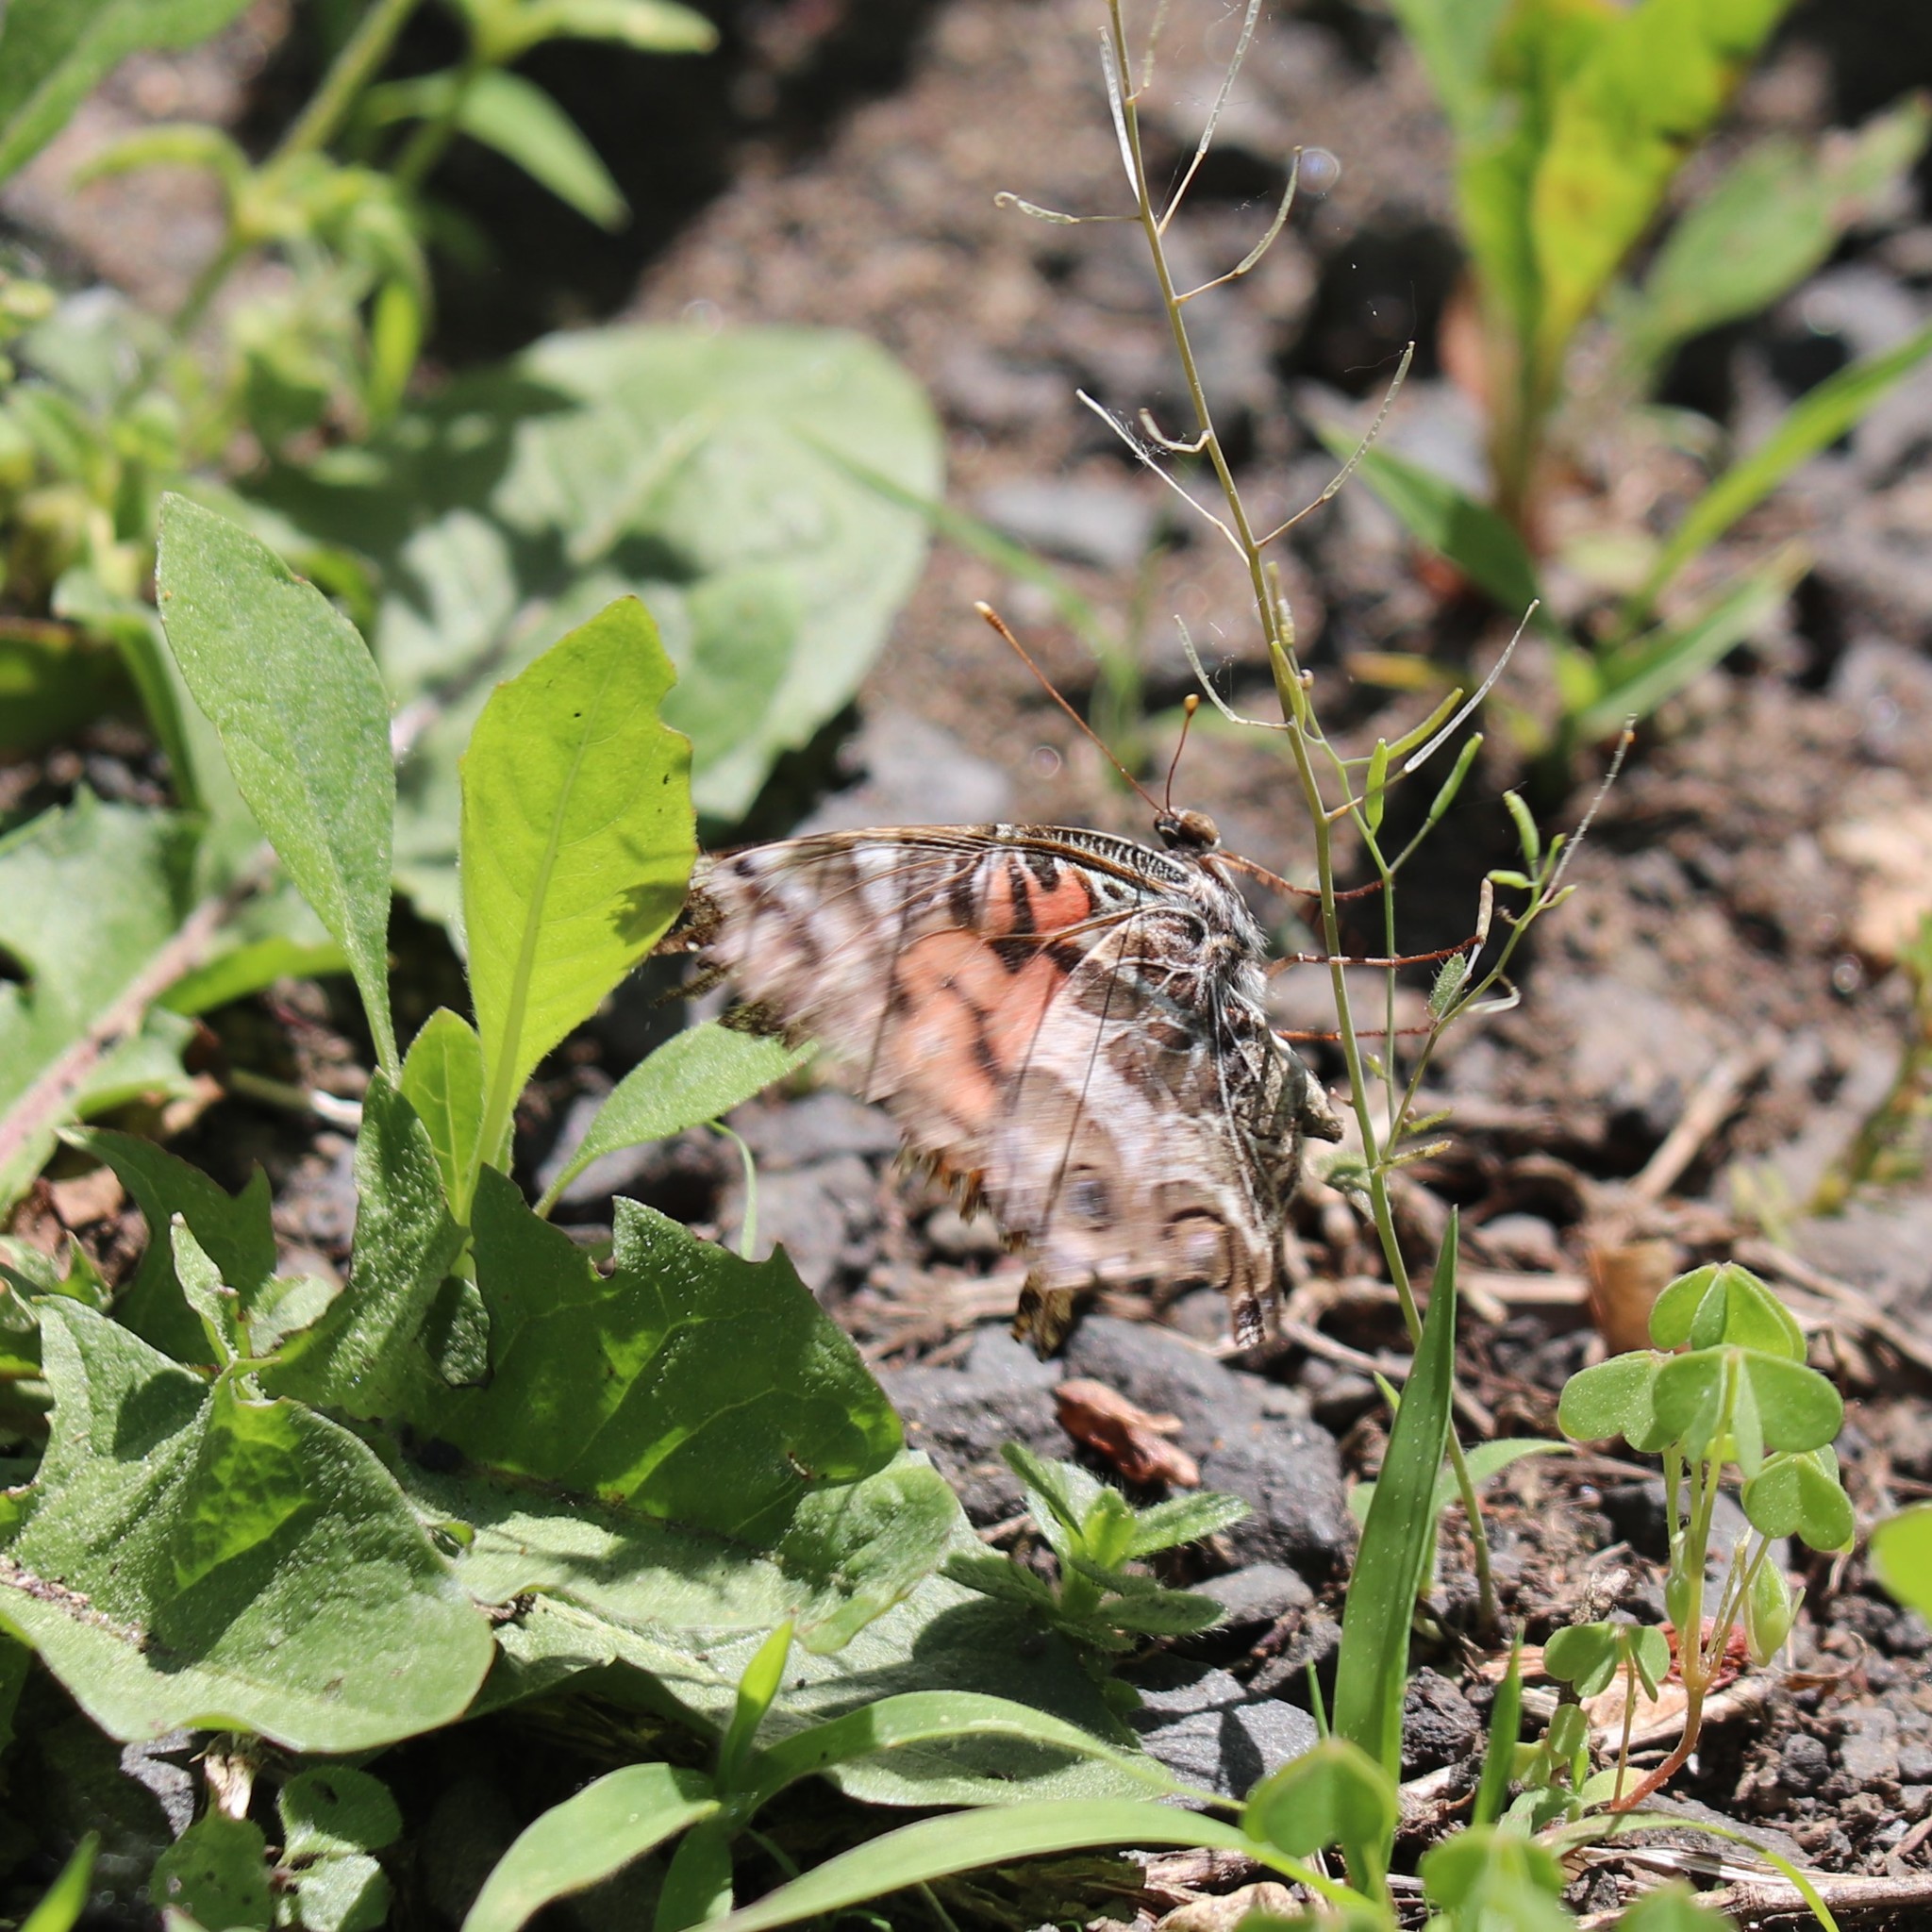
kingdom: Animalia
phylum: Arthropoda
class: Insecta
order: Lepidoptera
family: Nymphalidae
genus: Vanessa
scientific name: Vanessa virginiensis
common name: American lady
